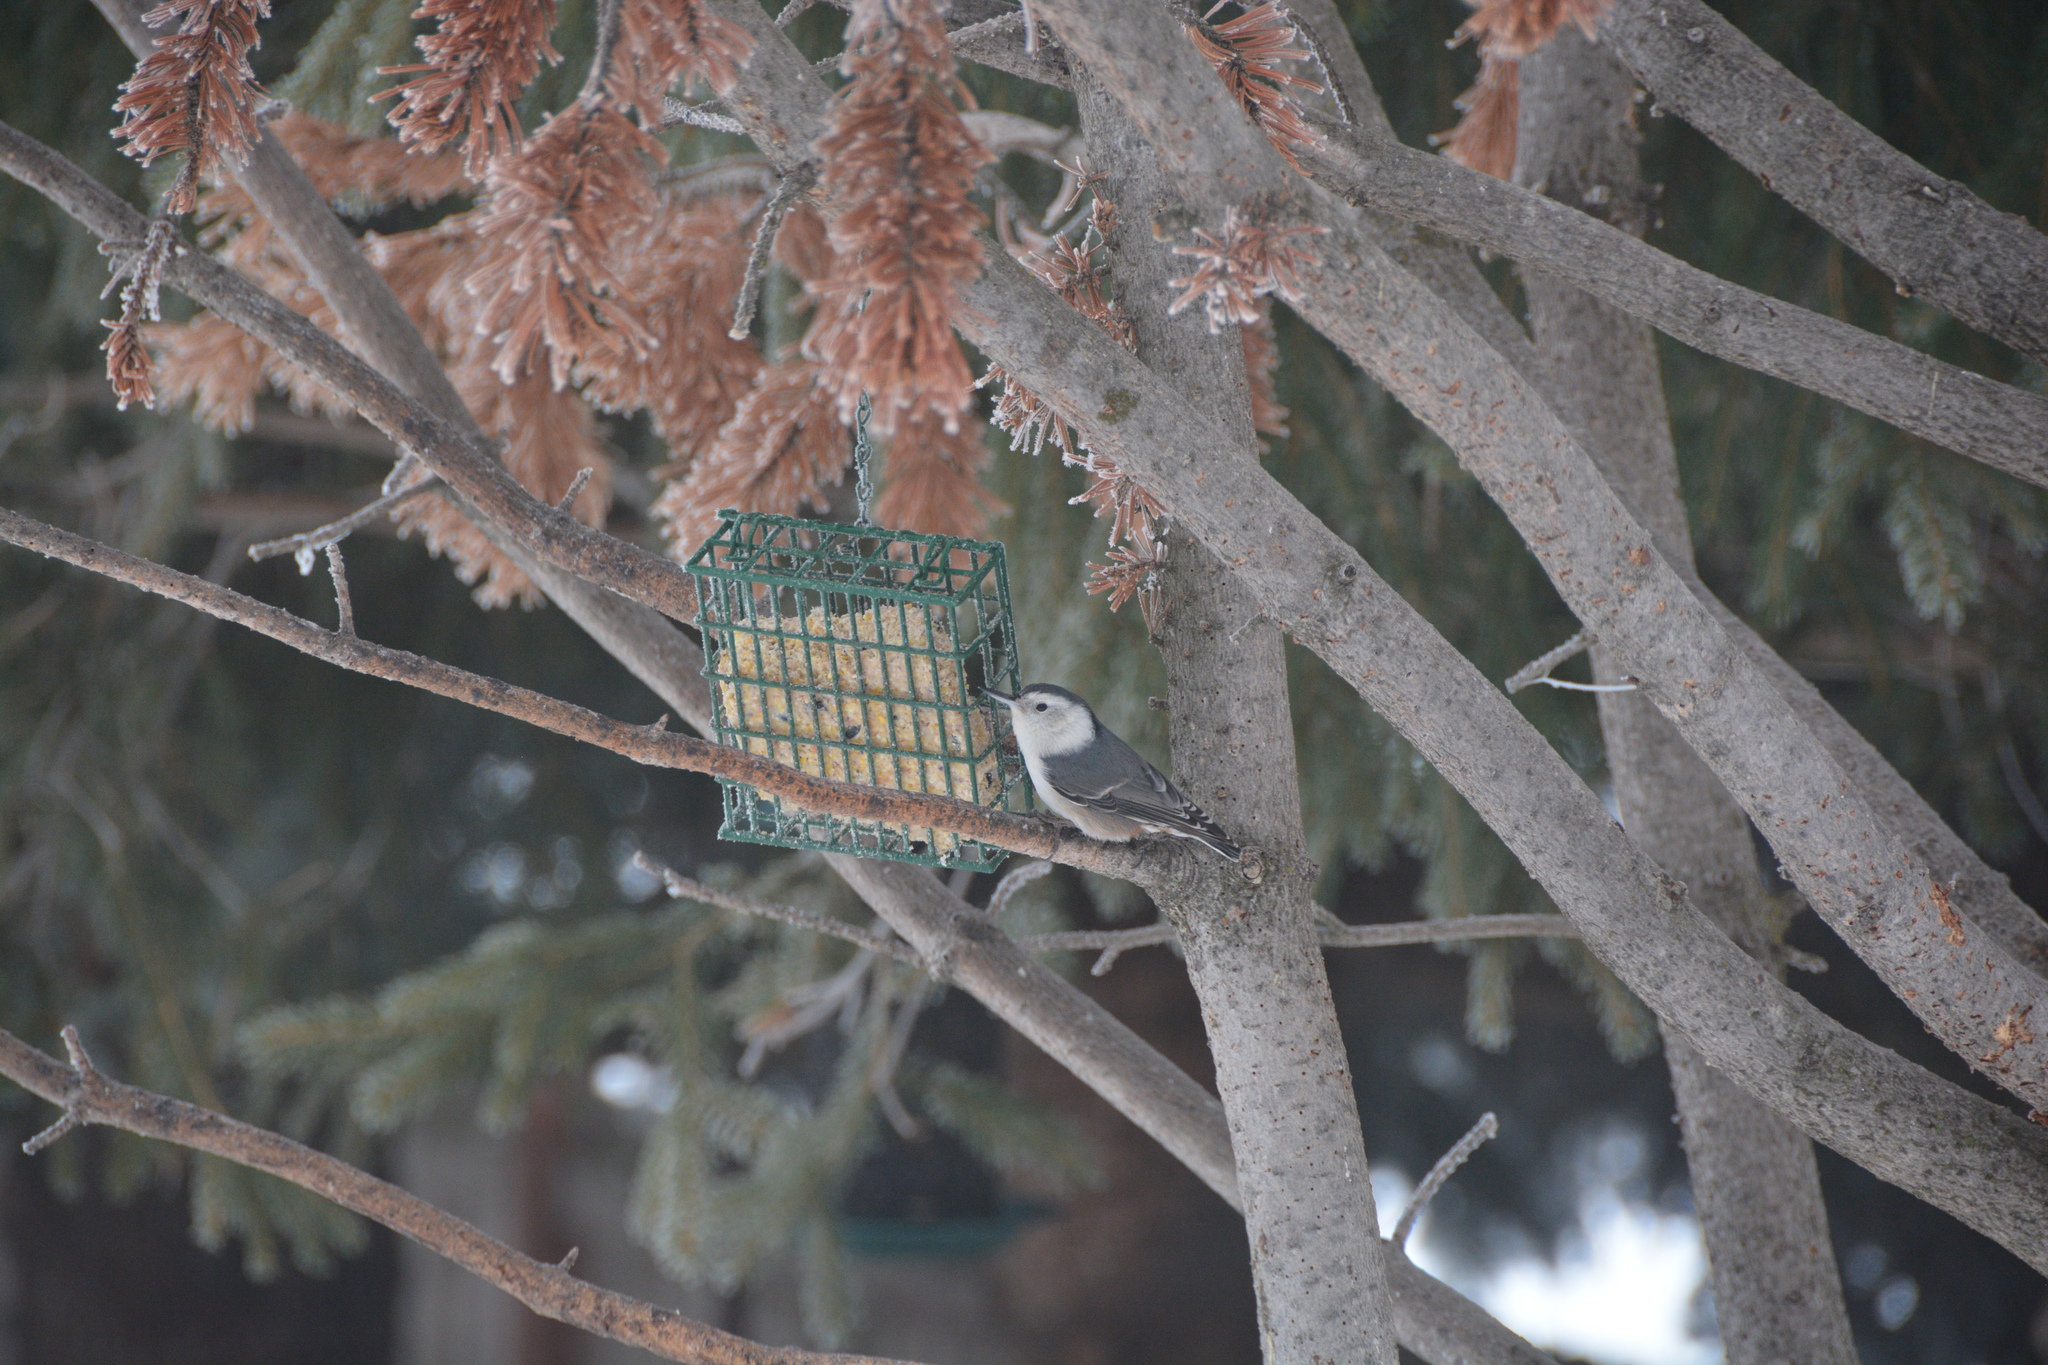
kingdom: Animalia
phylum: Chordata
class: Aves
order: Passeriformes
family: Sittidae
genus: Sitta
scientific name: Sitta carolinensis
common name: White-breasted nuthatch
